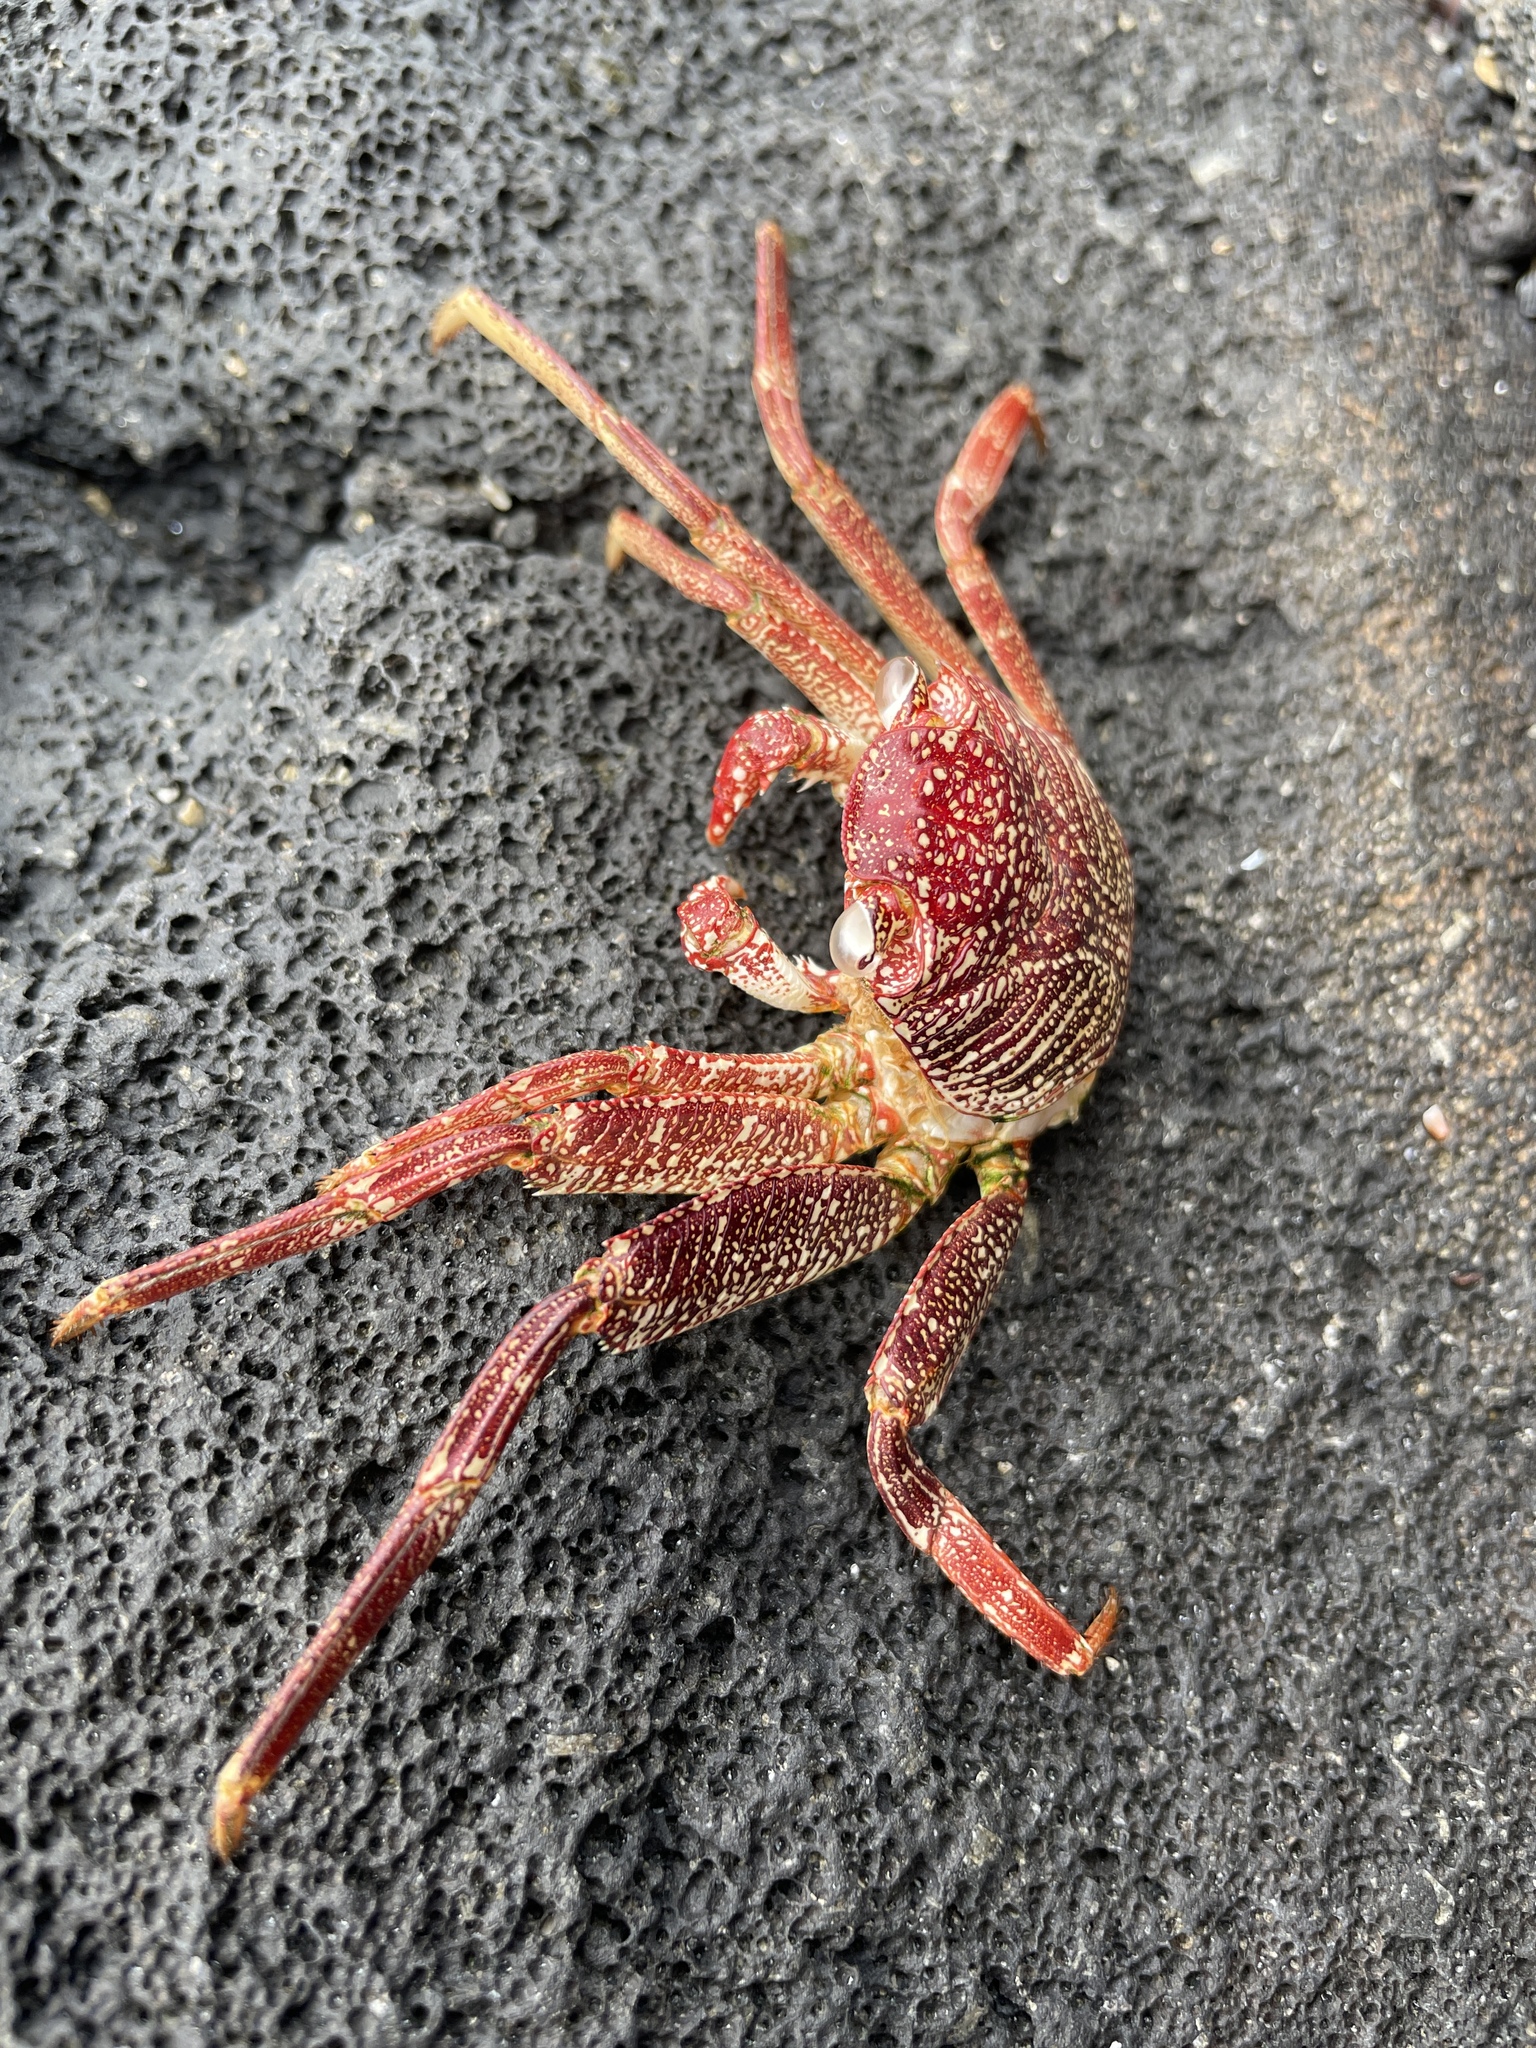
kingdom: Animalia
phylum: Arthropoda
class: Malacostraca
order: Decapoda
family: Grapsidae
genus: Grapsus
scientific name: Grapsus tenuicrustatus
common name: Natal lightfoot crab
